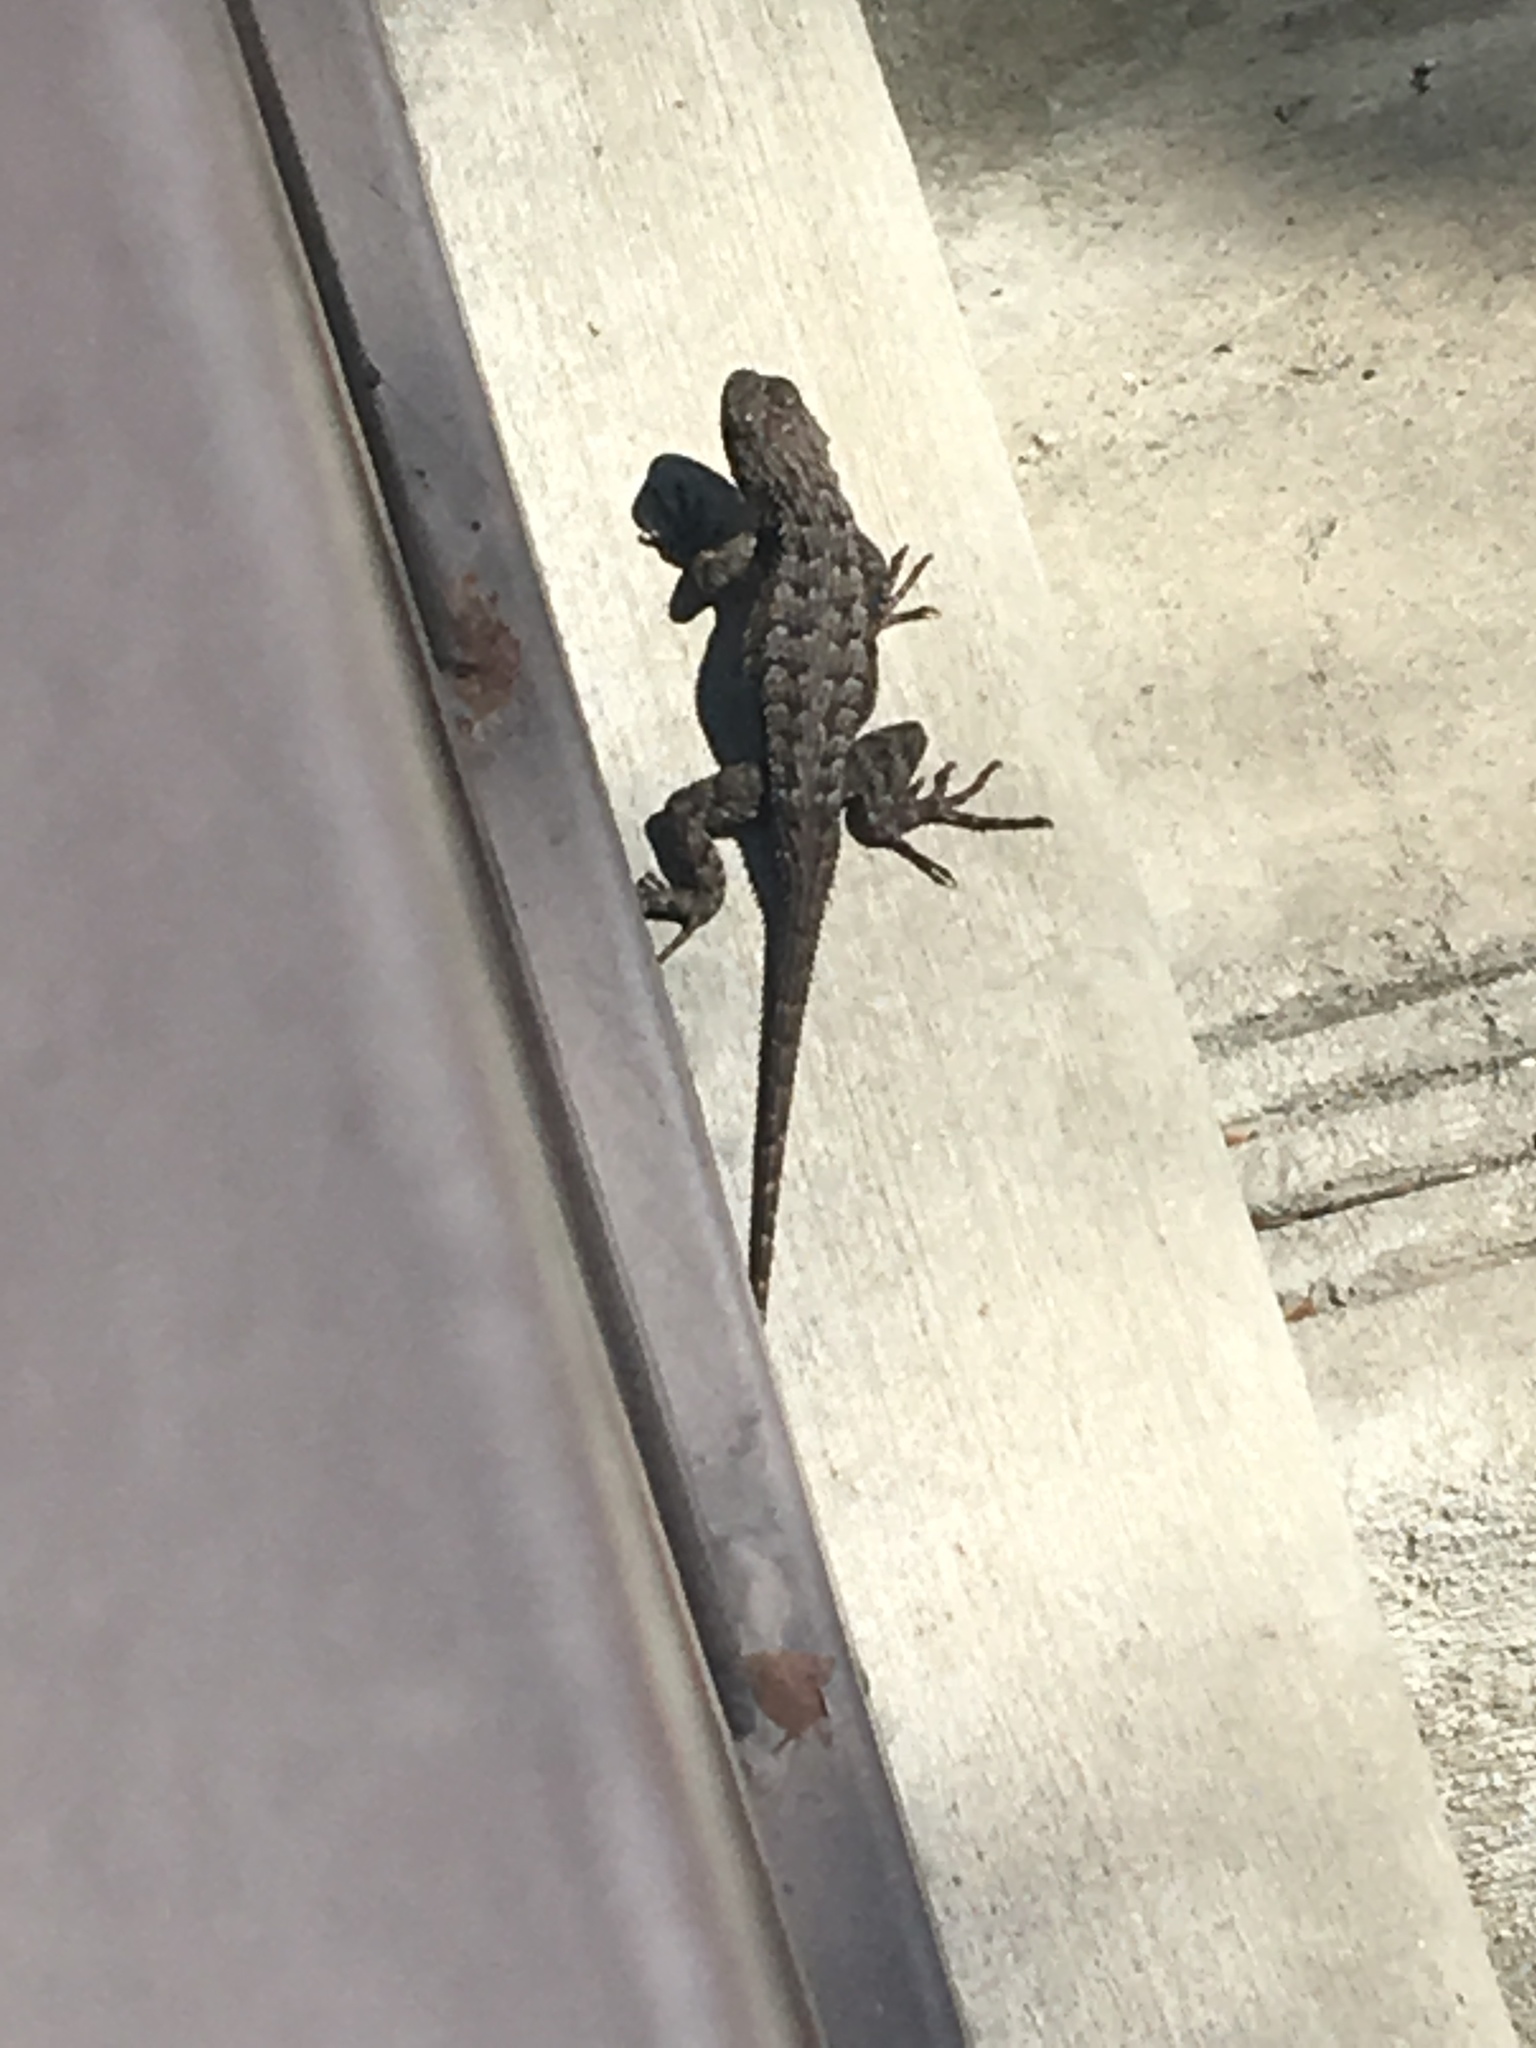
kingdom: Animalia
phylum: Chordata
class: Squamata
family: Phrynosomatidae
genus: Sceloporus
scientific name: Sceloporus occidentalis
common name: Western fence lizard
